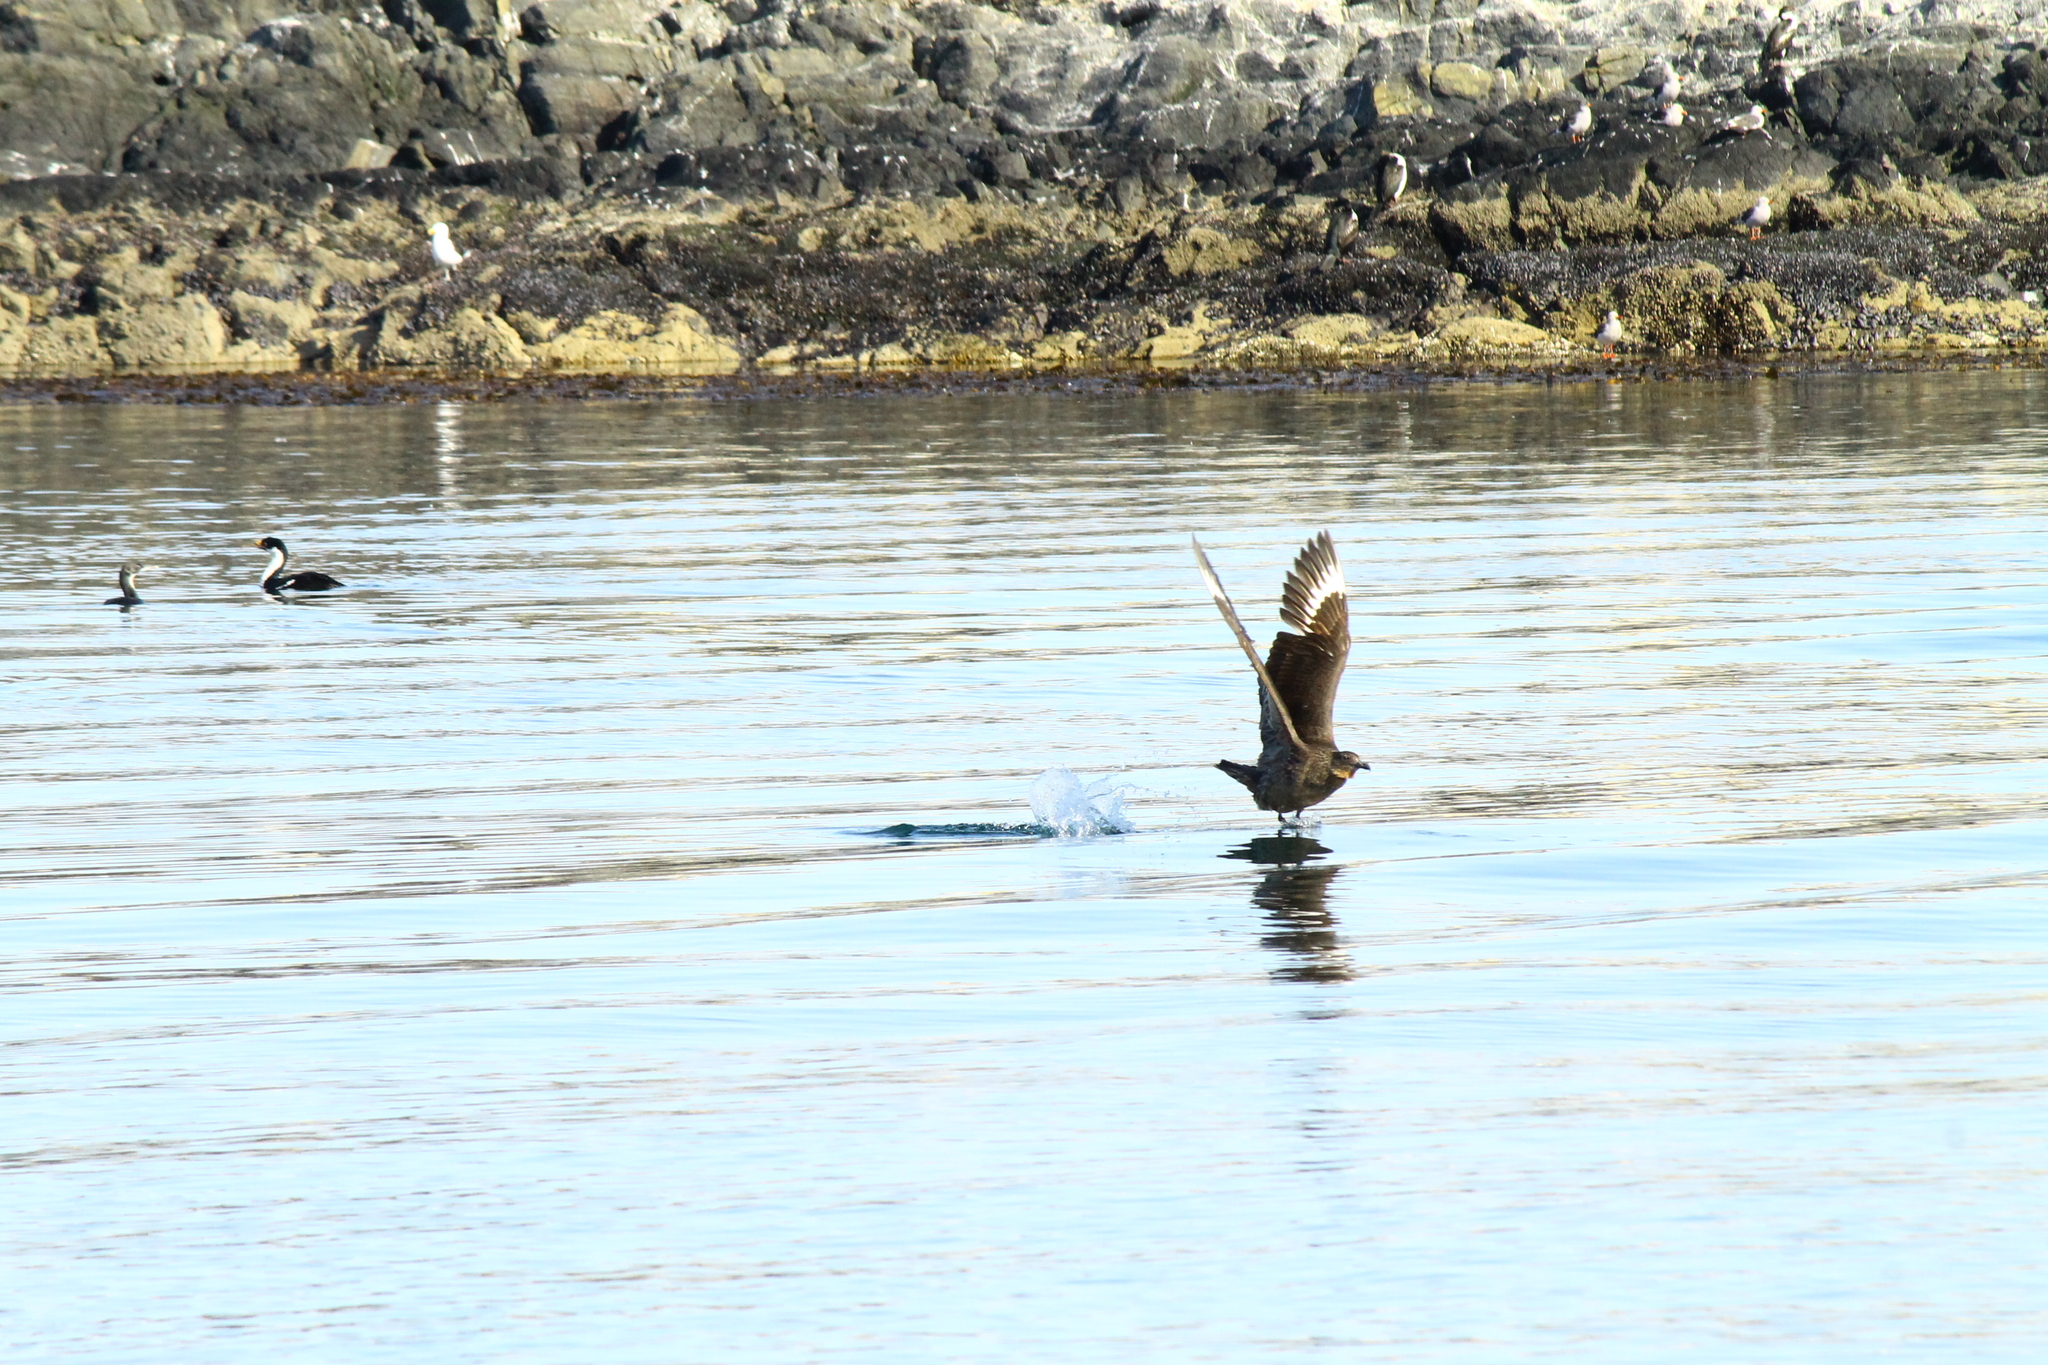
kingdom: Animalia
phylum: Chordata
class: Aves
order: Charadriiformes
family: Stercorariidae
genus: Stercorarius
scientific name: Stercorarius chilensis
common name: Chilean skua
